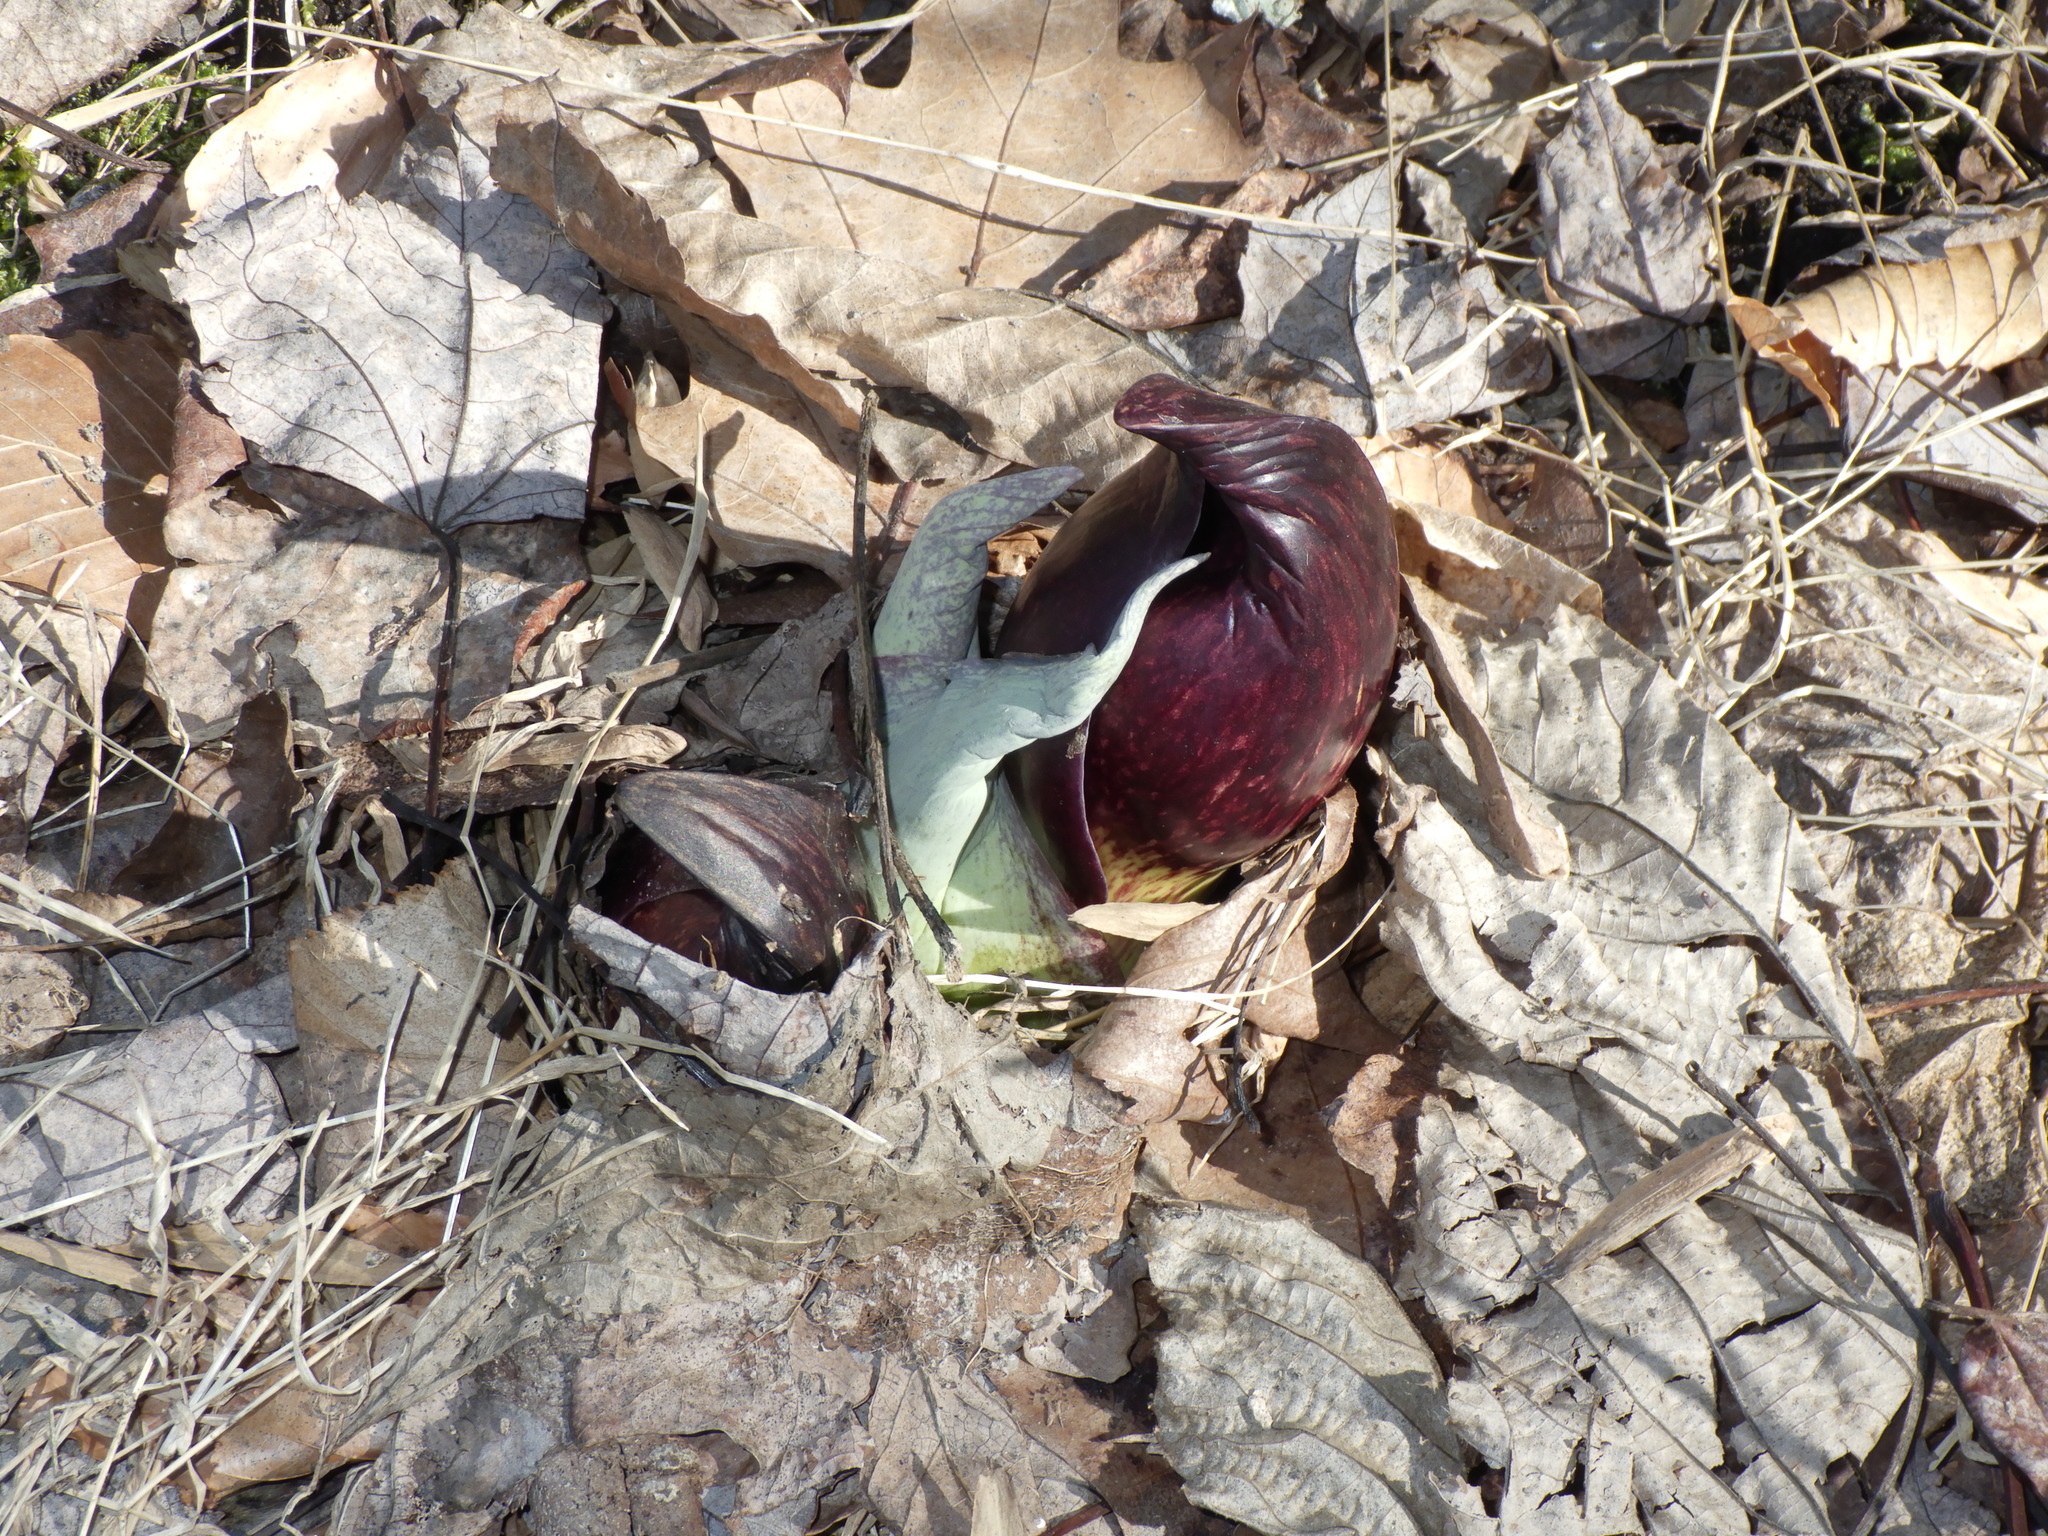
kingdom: Plantae
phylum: Tracheophyta
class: Liliopsida
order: Alismatales
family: Araceae
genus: Symplocarpus
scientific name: Symplocarpus foetidus
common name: Eastern skunk cabbage
